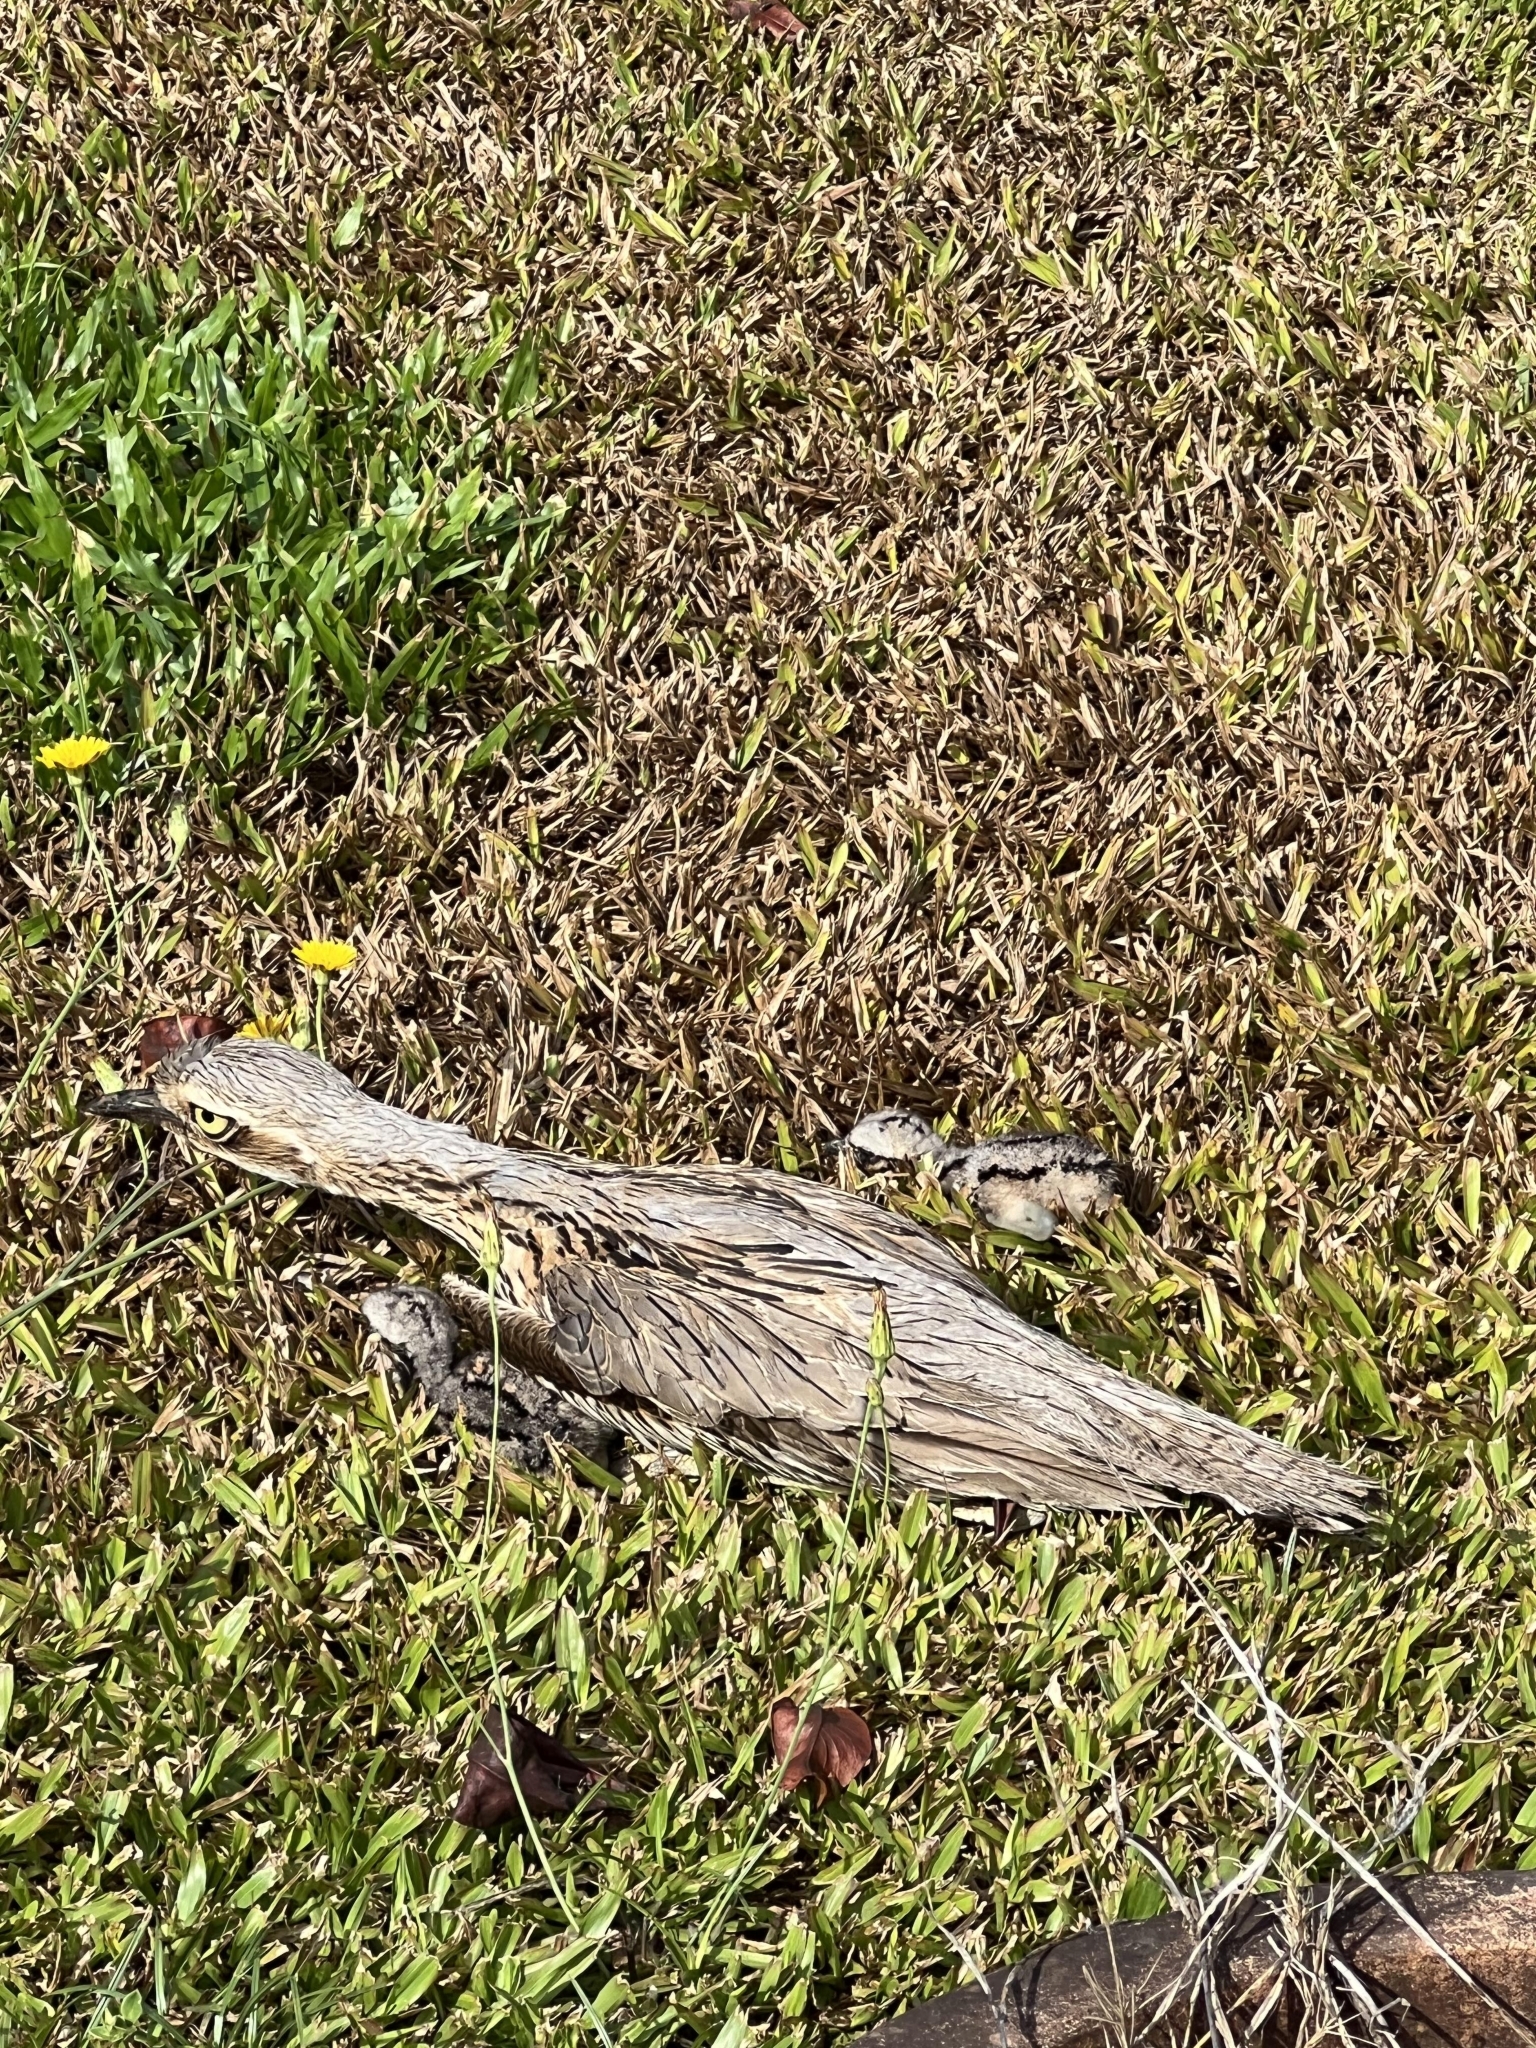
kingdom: Animalia
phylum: Chordata
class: Aves
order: Charadriiformes
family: Burhinidae
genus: Burhinus
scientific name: Burhinus grallarius
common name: Bush stone-curlew
